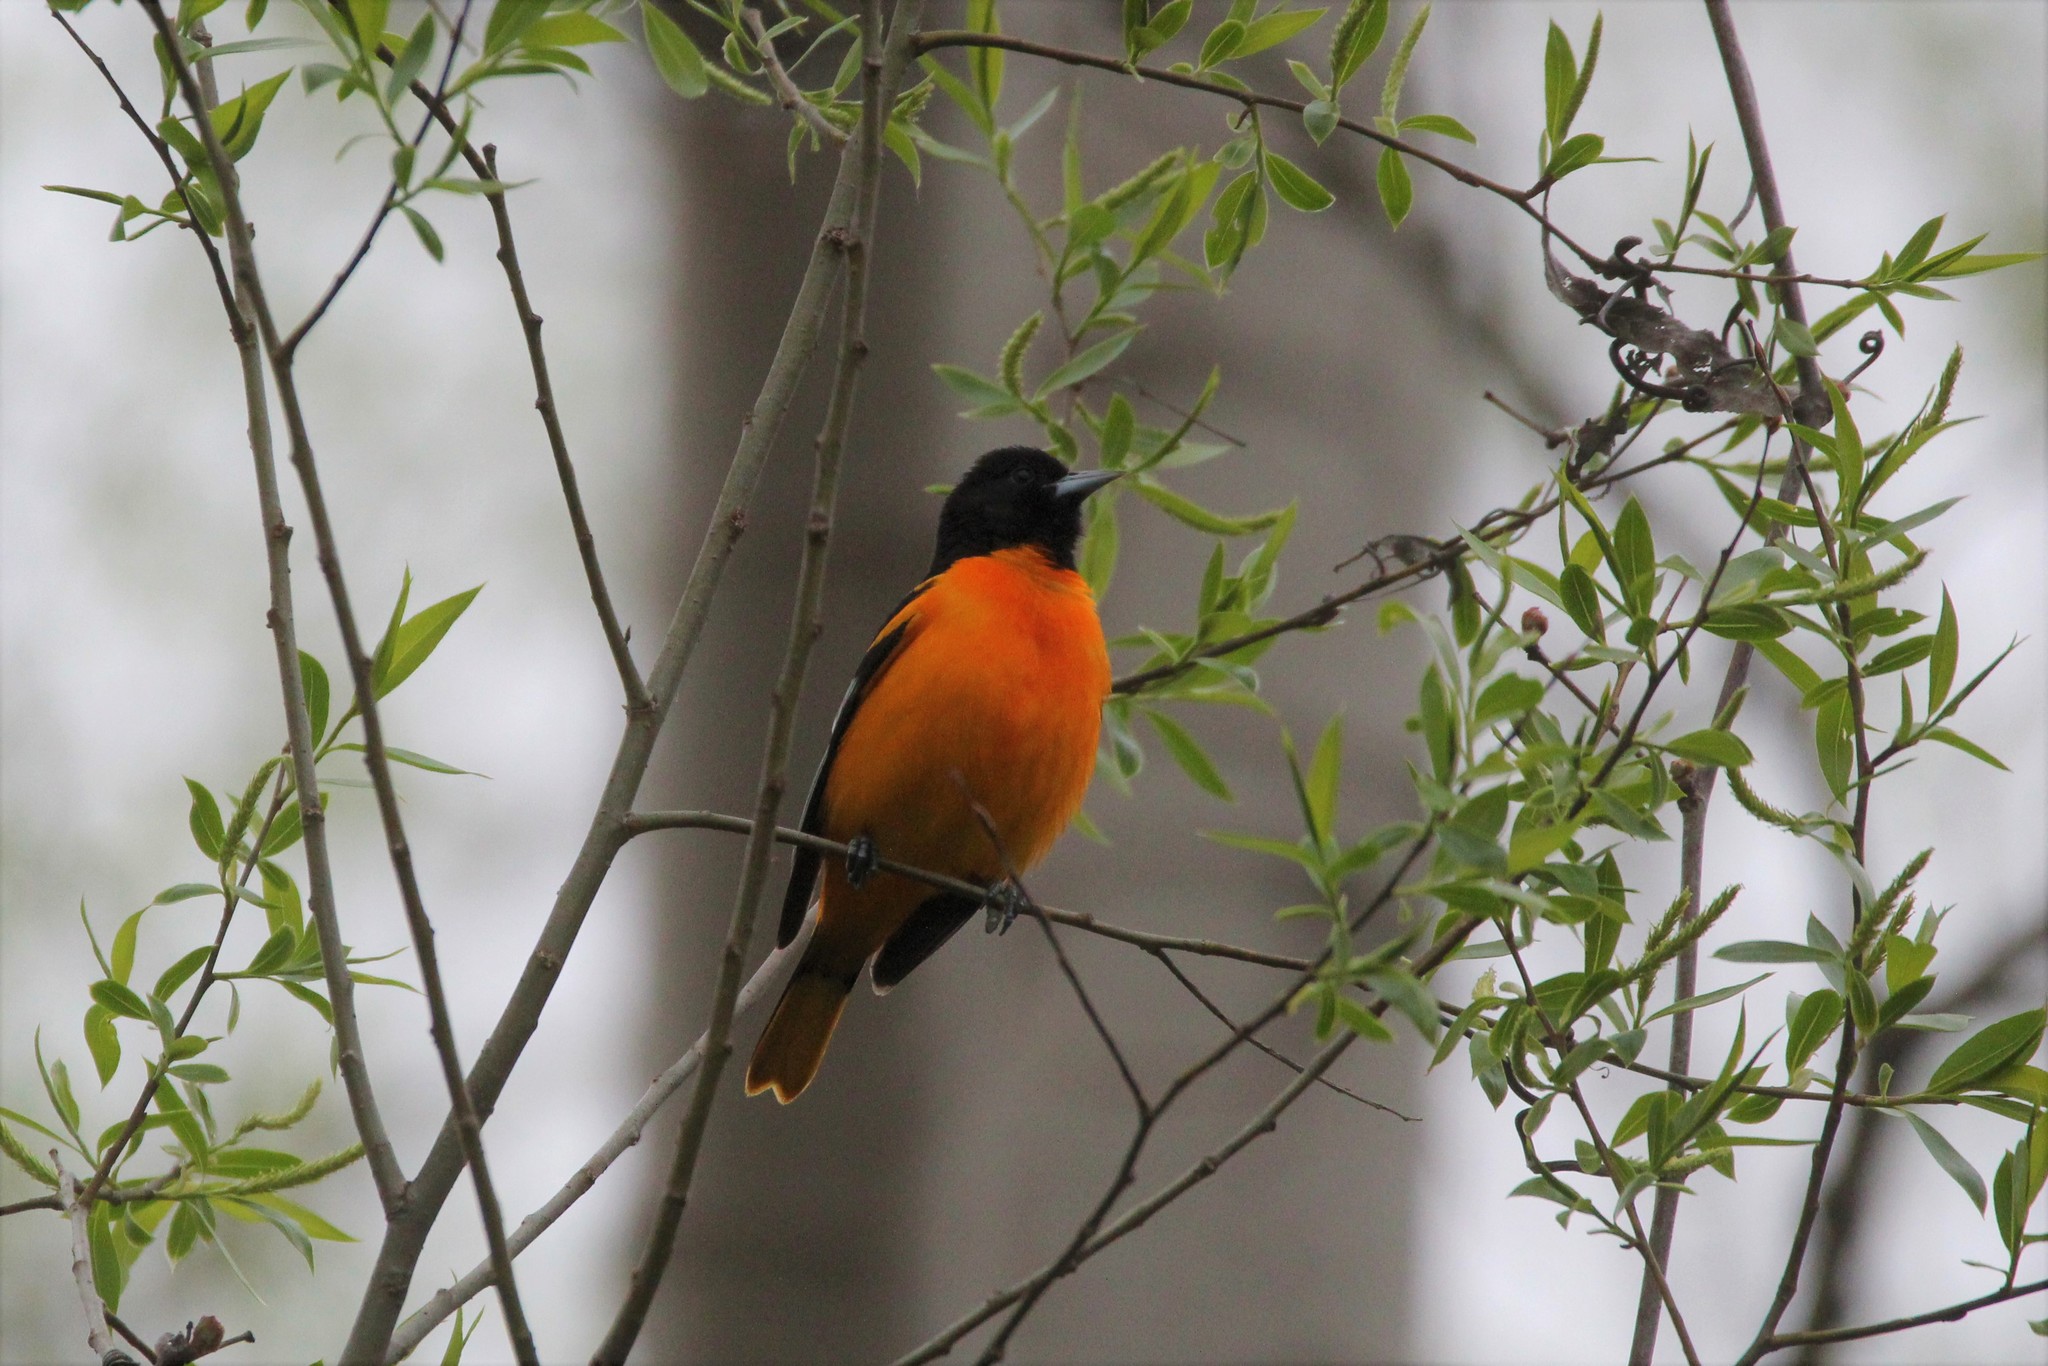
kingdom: Animalia
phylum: Chordata
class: Aves
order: Passeriformes
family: Icteridae
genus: Icterus
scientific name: Icterus galbula
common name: Baltimore oriole
